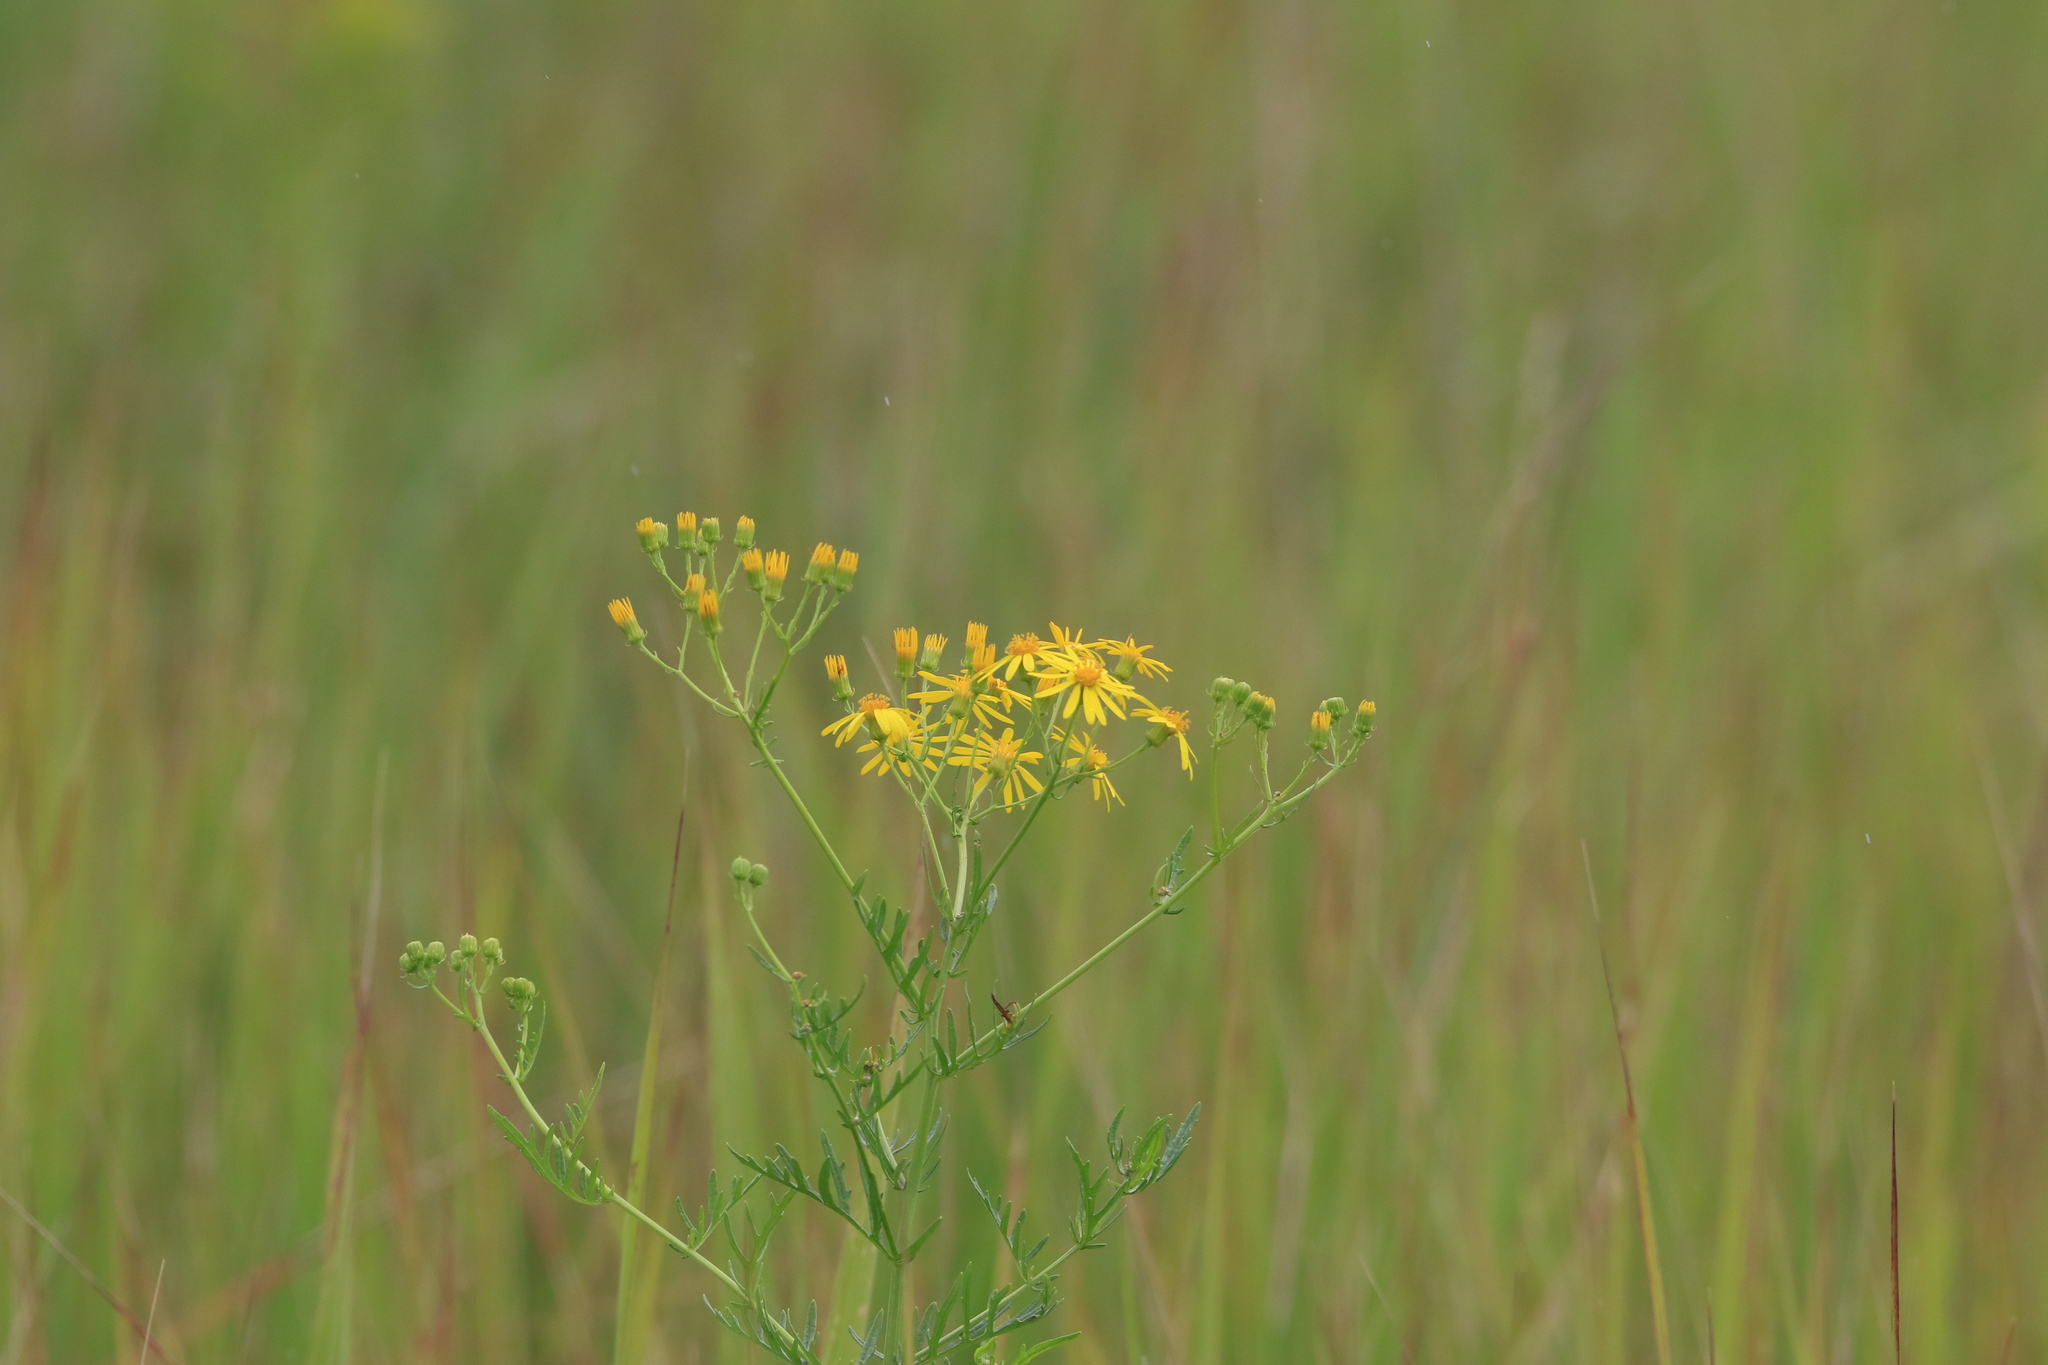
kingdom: Plantae
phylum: Tracheophyta
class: Magnoliopsida
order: Asterales
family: Asteraceae
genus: Jacobaea
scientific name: Jacobaea vulgaris
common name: Stinking willie
